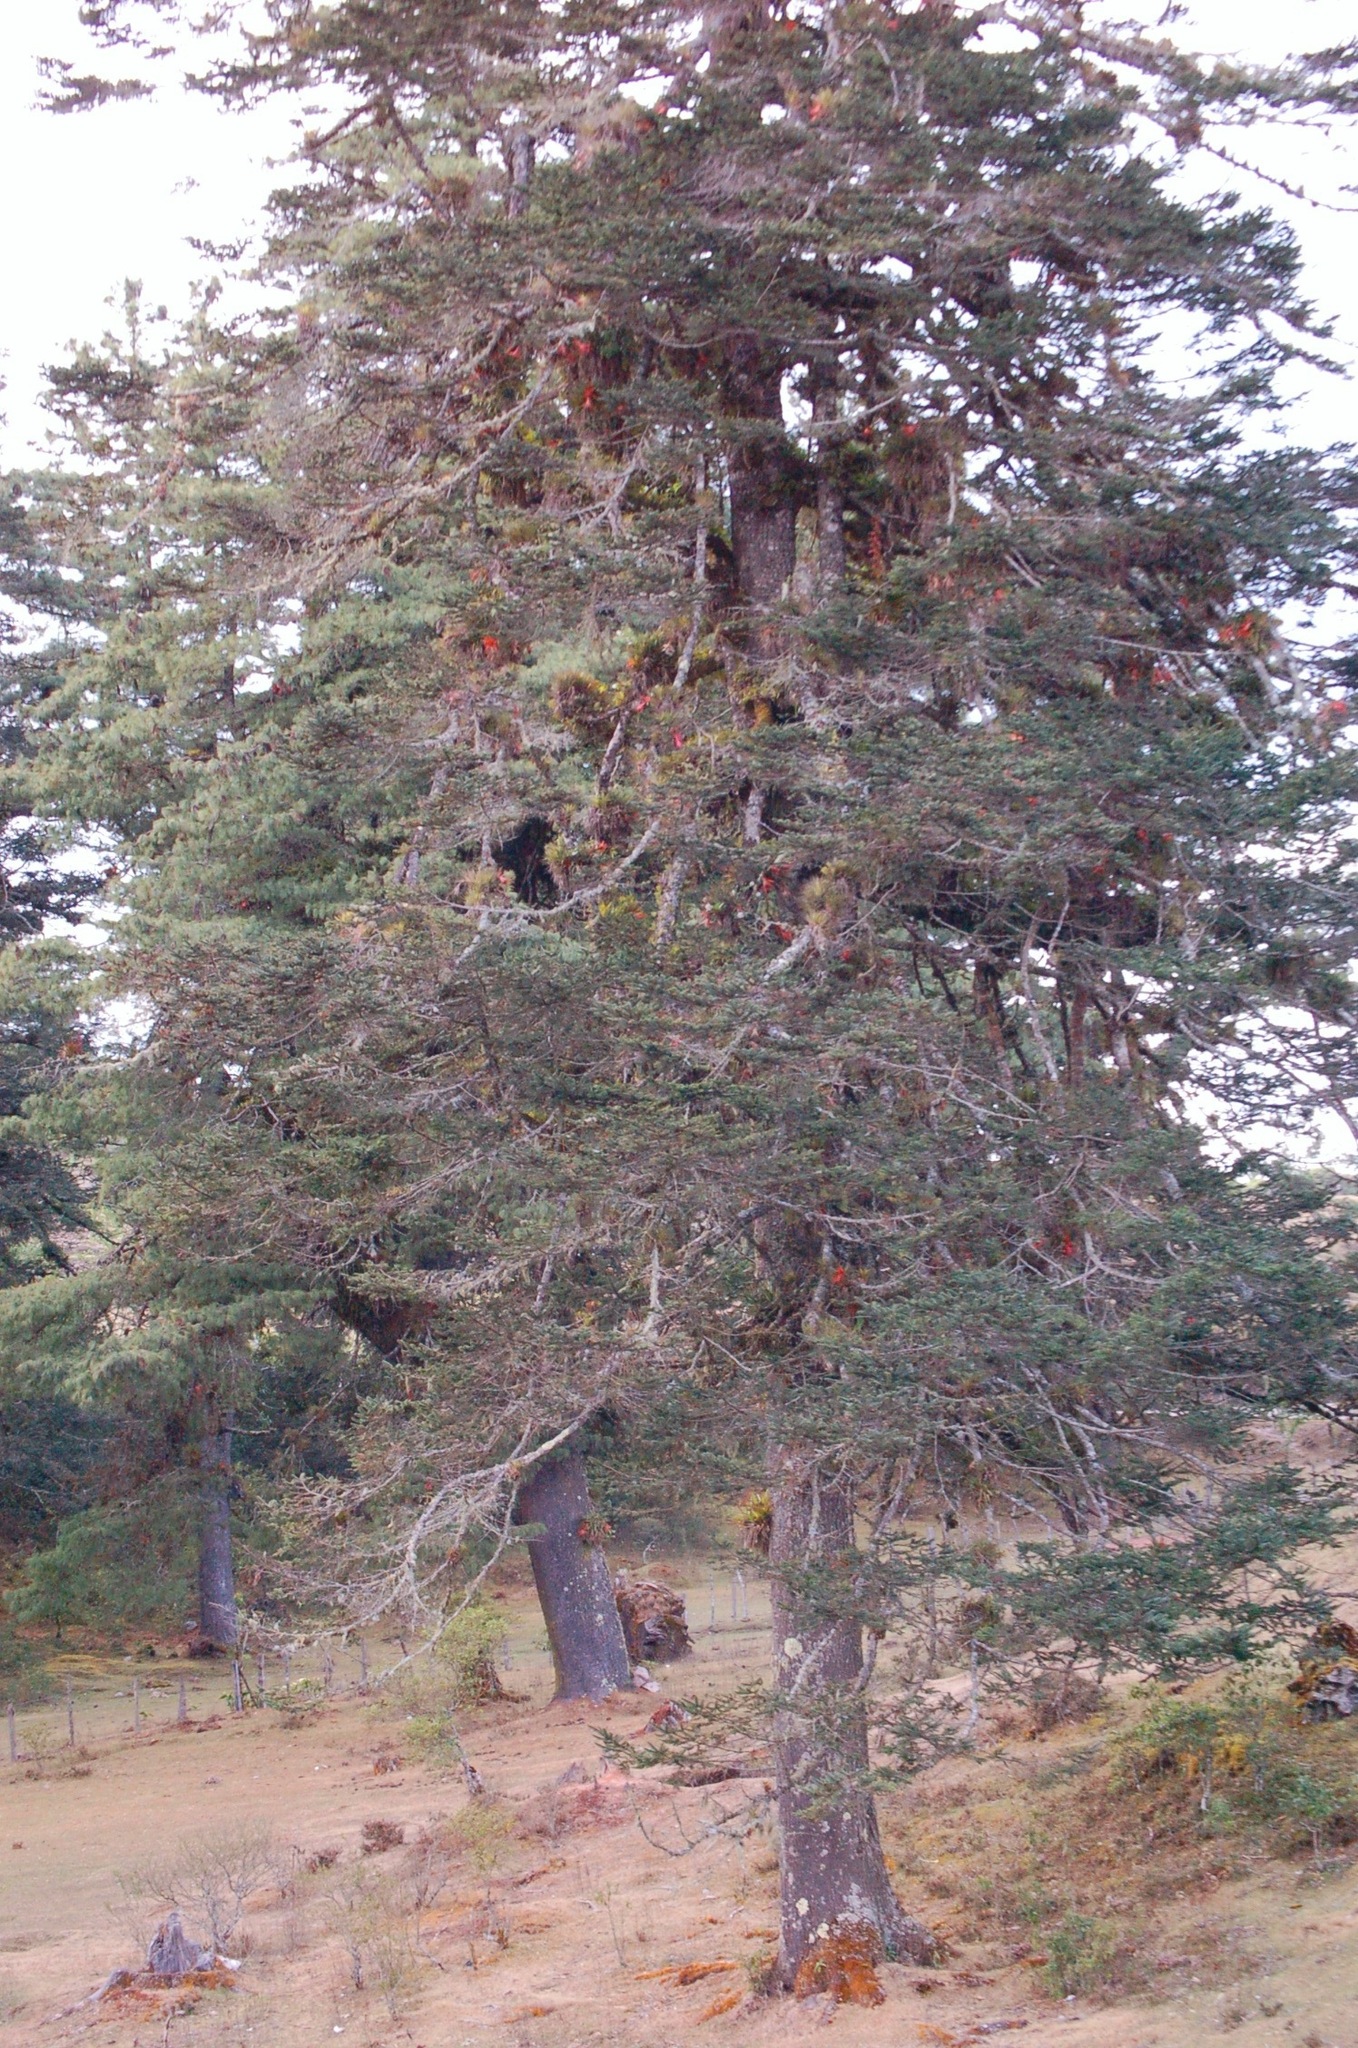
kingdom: Plantae
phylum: Tracheophyta
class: Pinopsida
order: Pinales
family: Pinaceae
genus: Abies
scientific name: Abies guatemalensis
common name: Guatemalan fir
